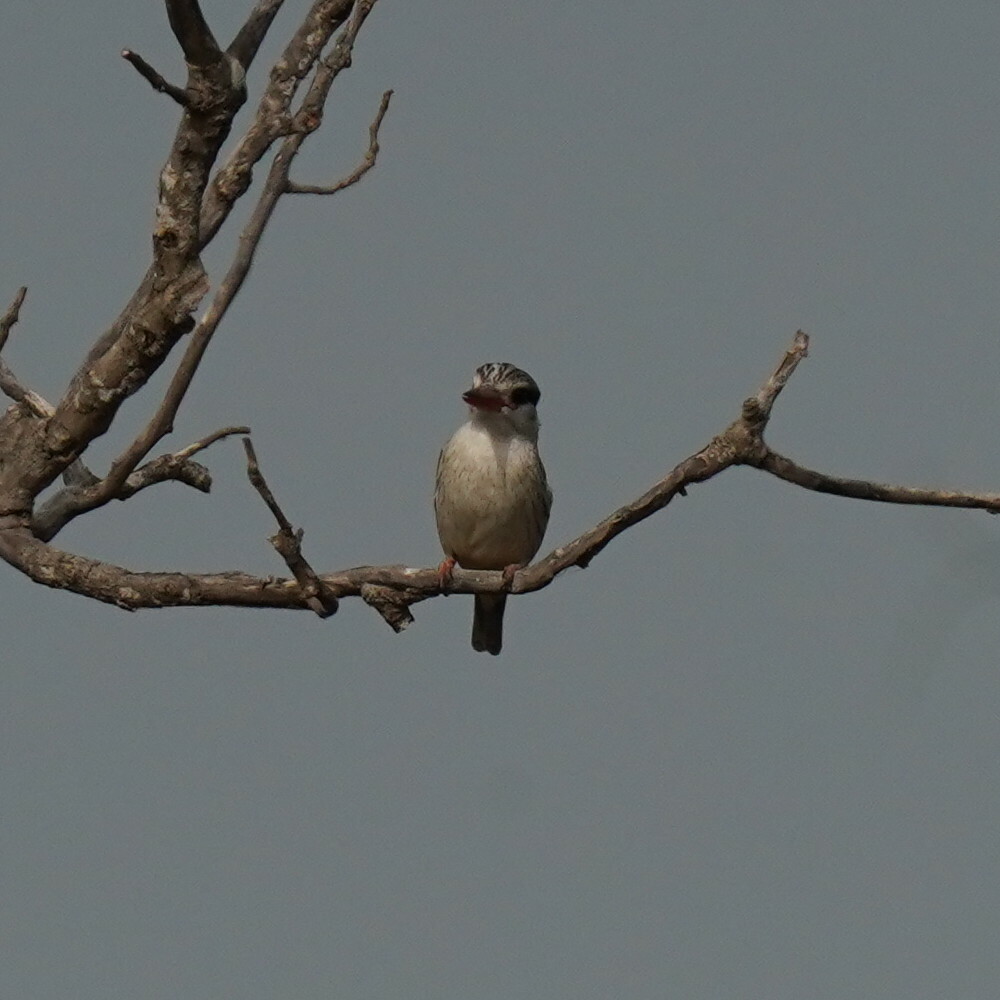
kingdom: Animalia
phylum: Chordata
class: Aves
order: Coraciiformes
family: Alcedinidae
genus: Halcyon
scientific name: Halcyon chelicuti
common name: Striped kingfisher
